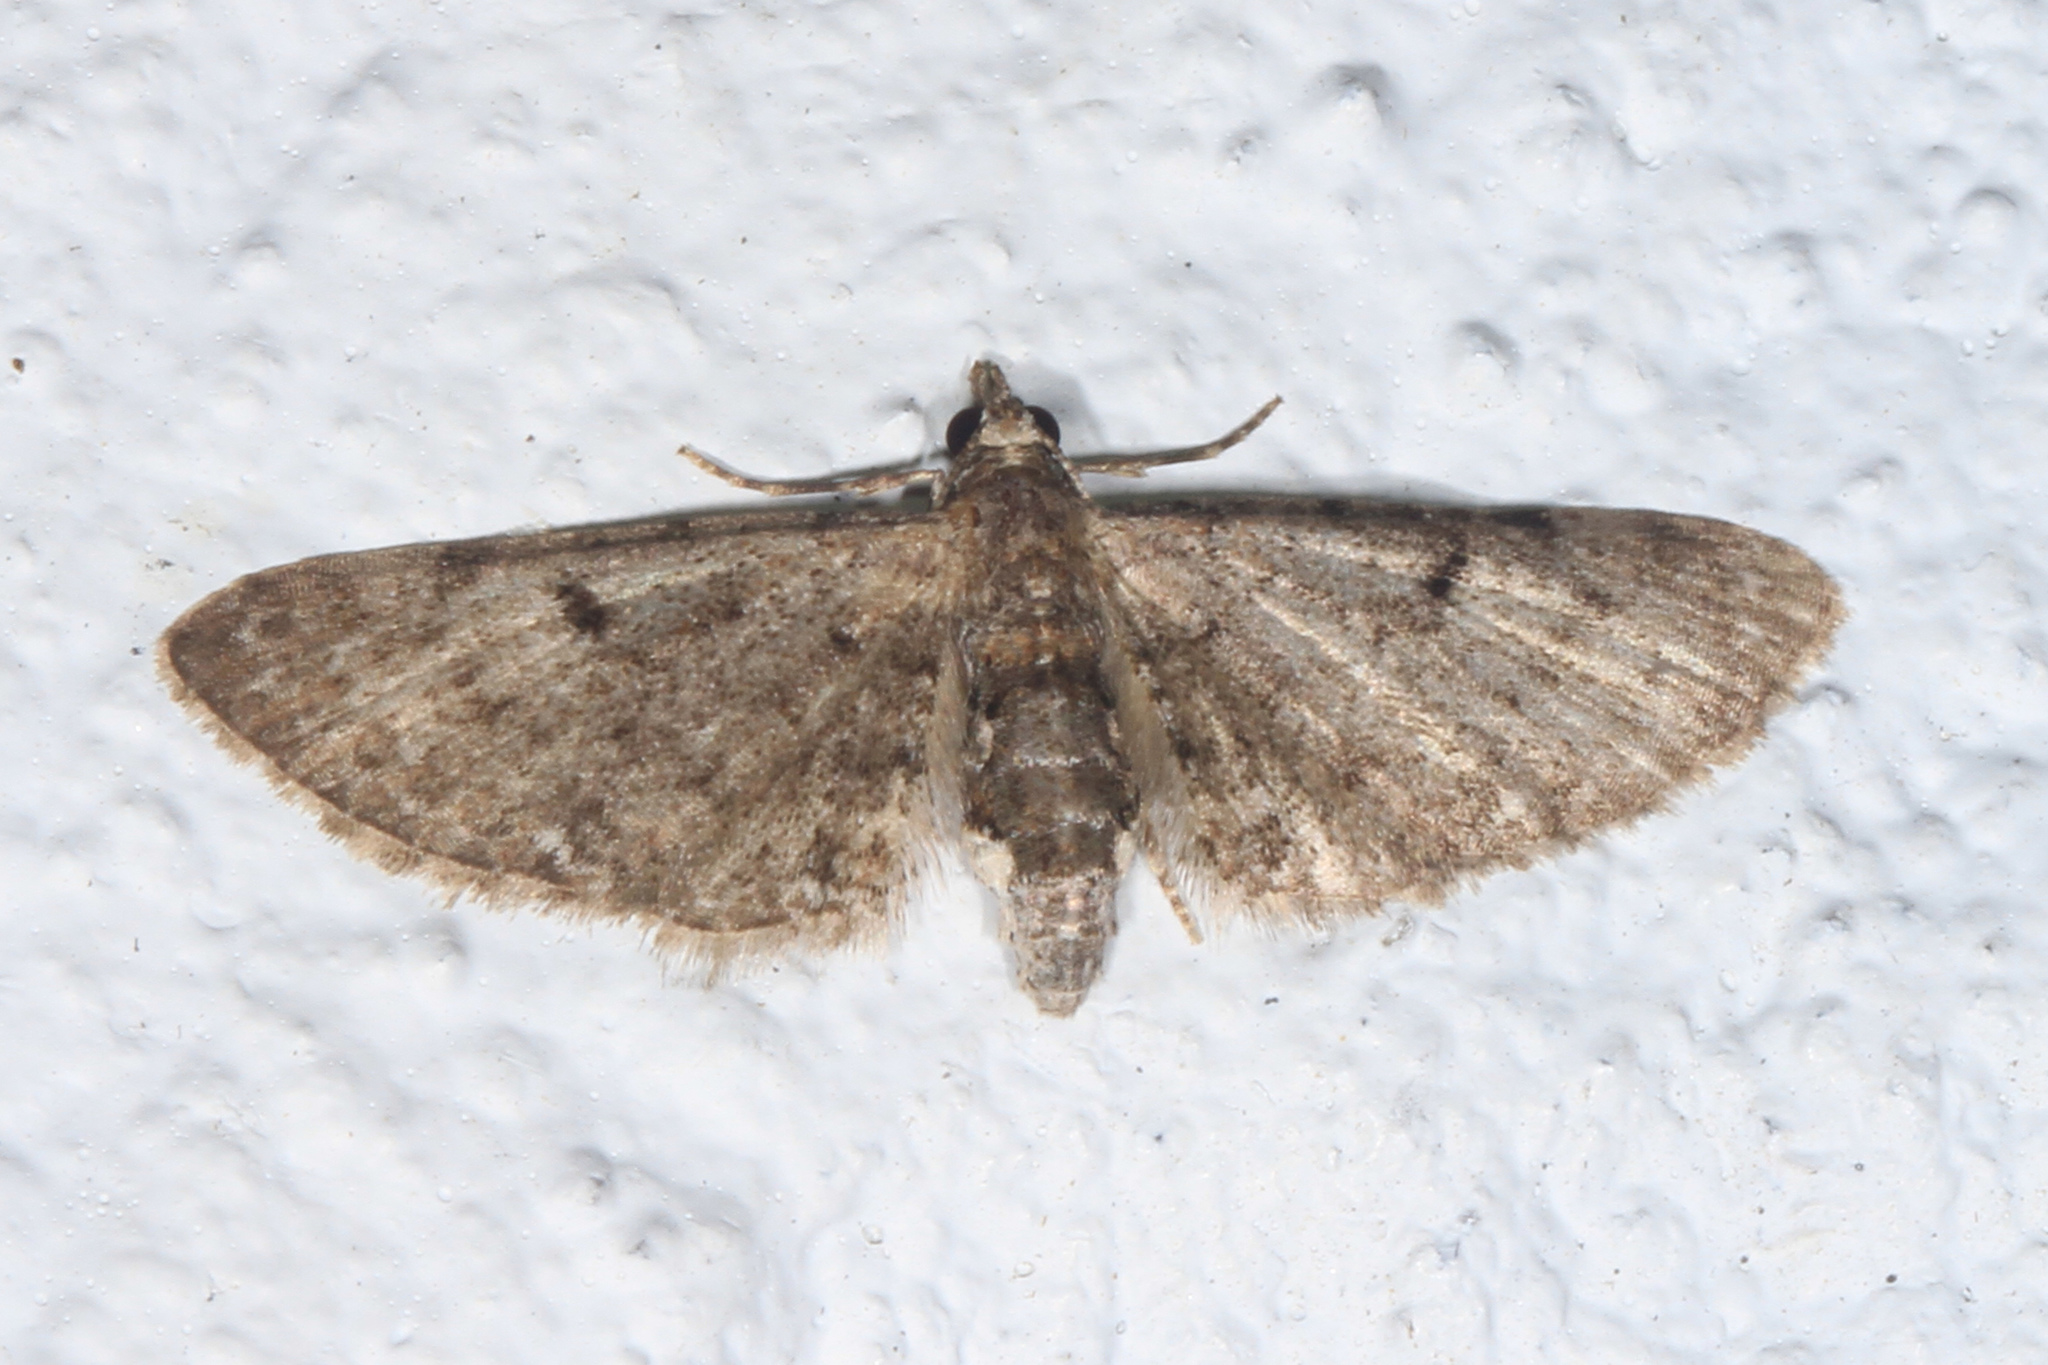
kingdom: Animalia
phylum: Arthropoda
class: Insecta
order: Lepidoptera
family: Geometridae
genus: Eupithecia
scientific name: Eupithecia miserulata
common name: Common eupithecia
